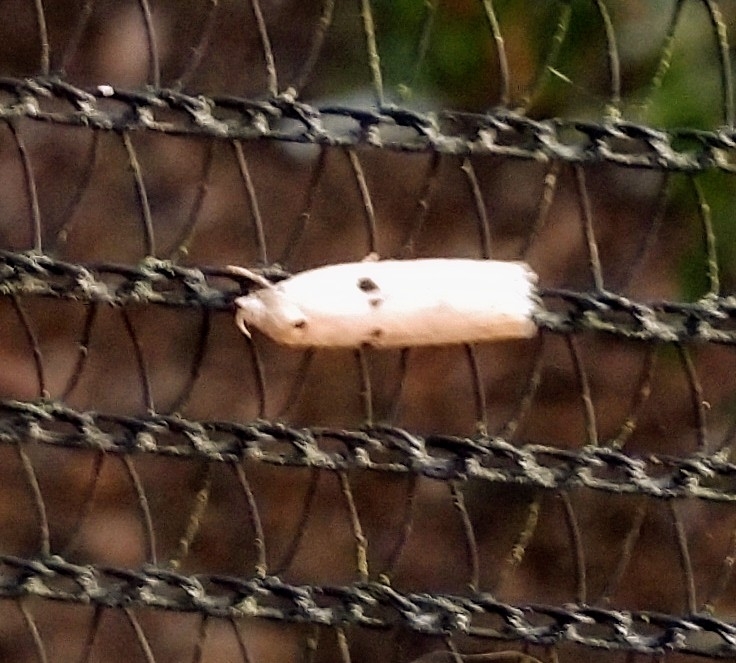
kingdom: Animalia
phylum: Arthropoda
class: Insecta
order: Lepidoptera
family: Peleopodidae
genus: Scythropiodes
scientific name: Scythropiodes issikii
